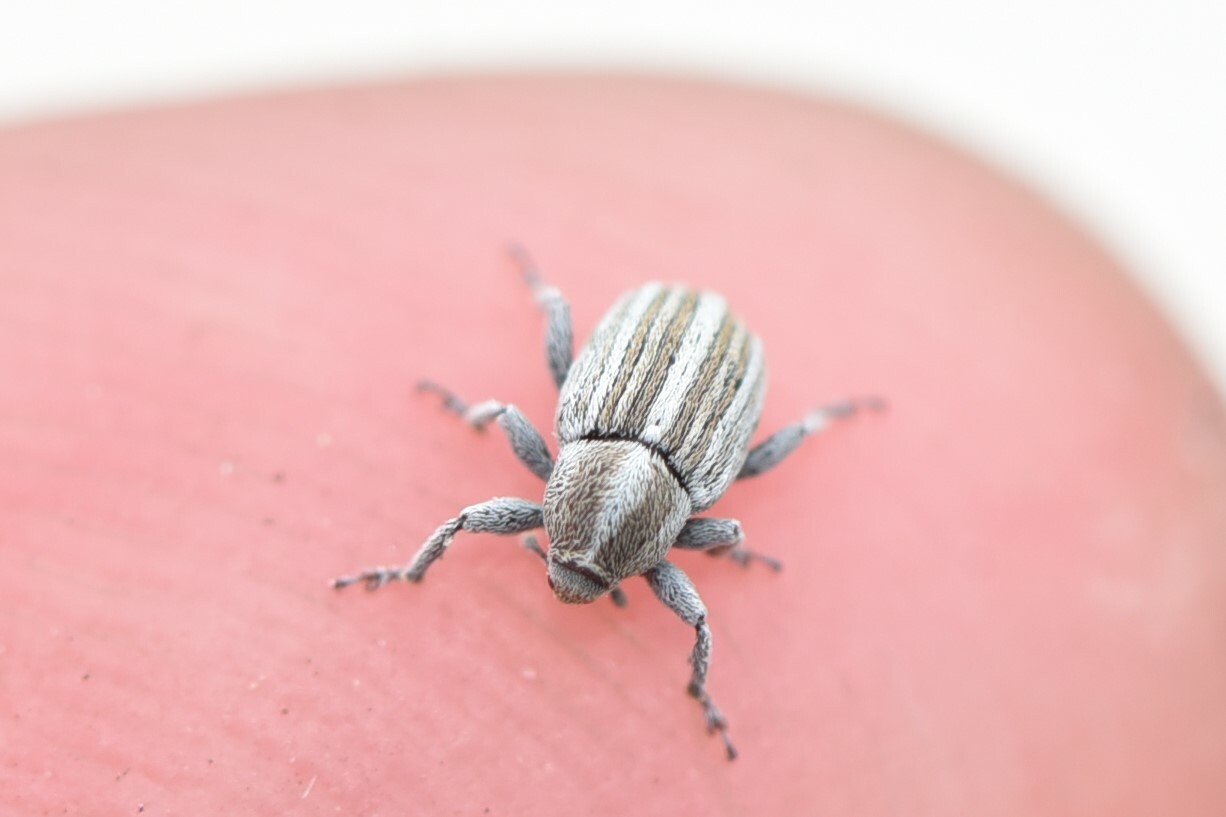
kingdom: Animalia
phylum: Arthropoda
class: Insecta
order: Coleoptera
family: Curculionidae
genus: Tychius
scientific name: Tychius lineellus
